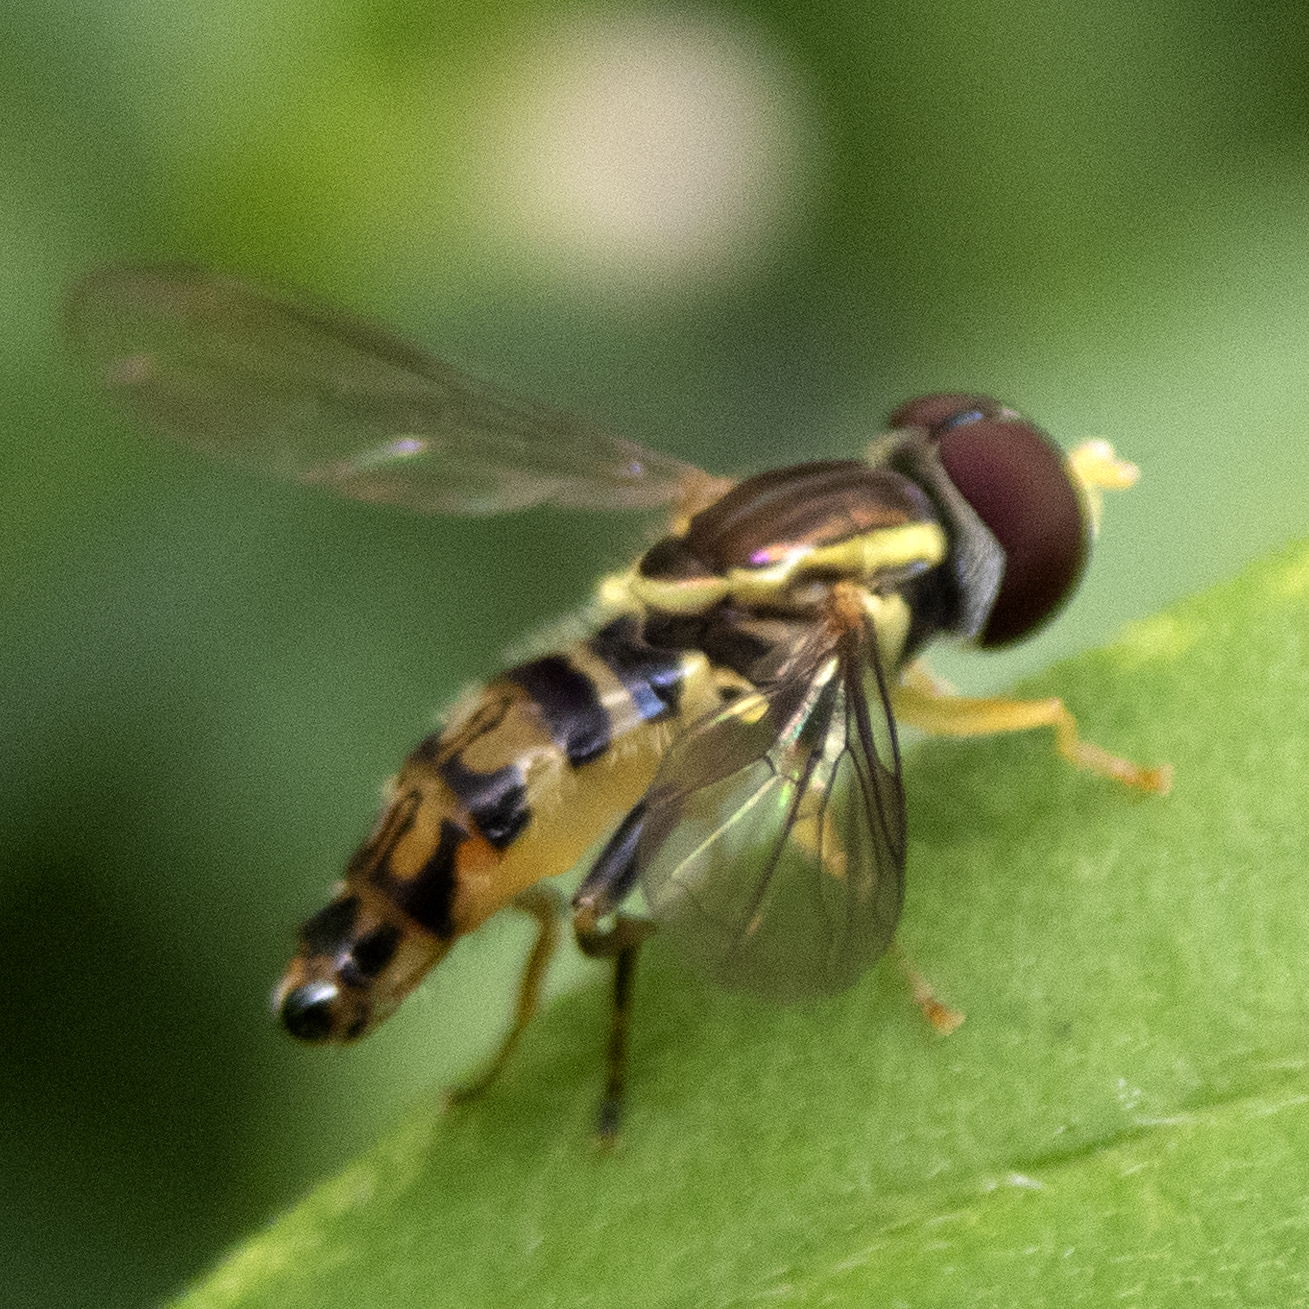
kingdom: Animalia
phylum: Arthropoda
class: Insecta
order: Diptera
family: Syrphidae
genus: Toxomerus
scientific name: Toxomerus geminatus
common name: Eastern calligrapher
